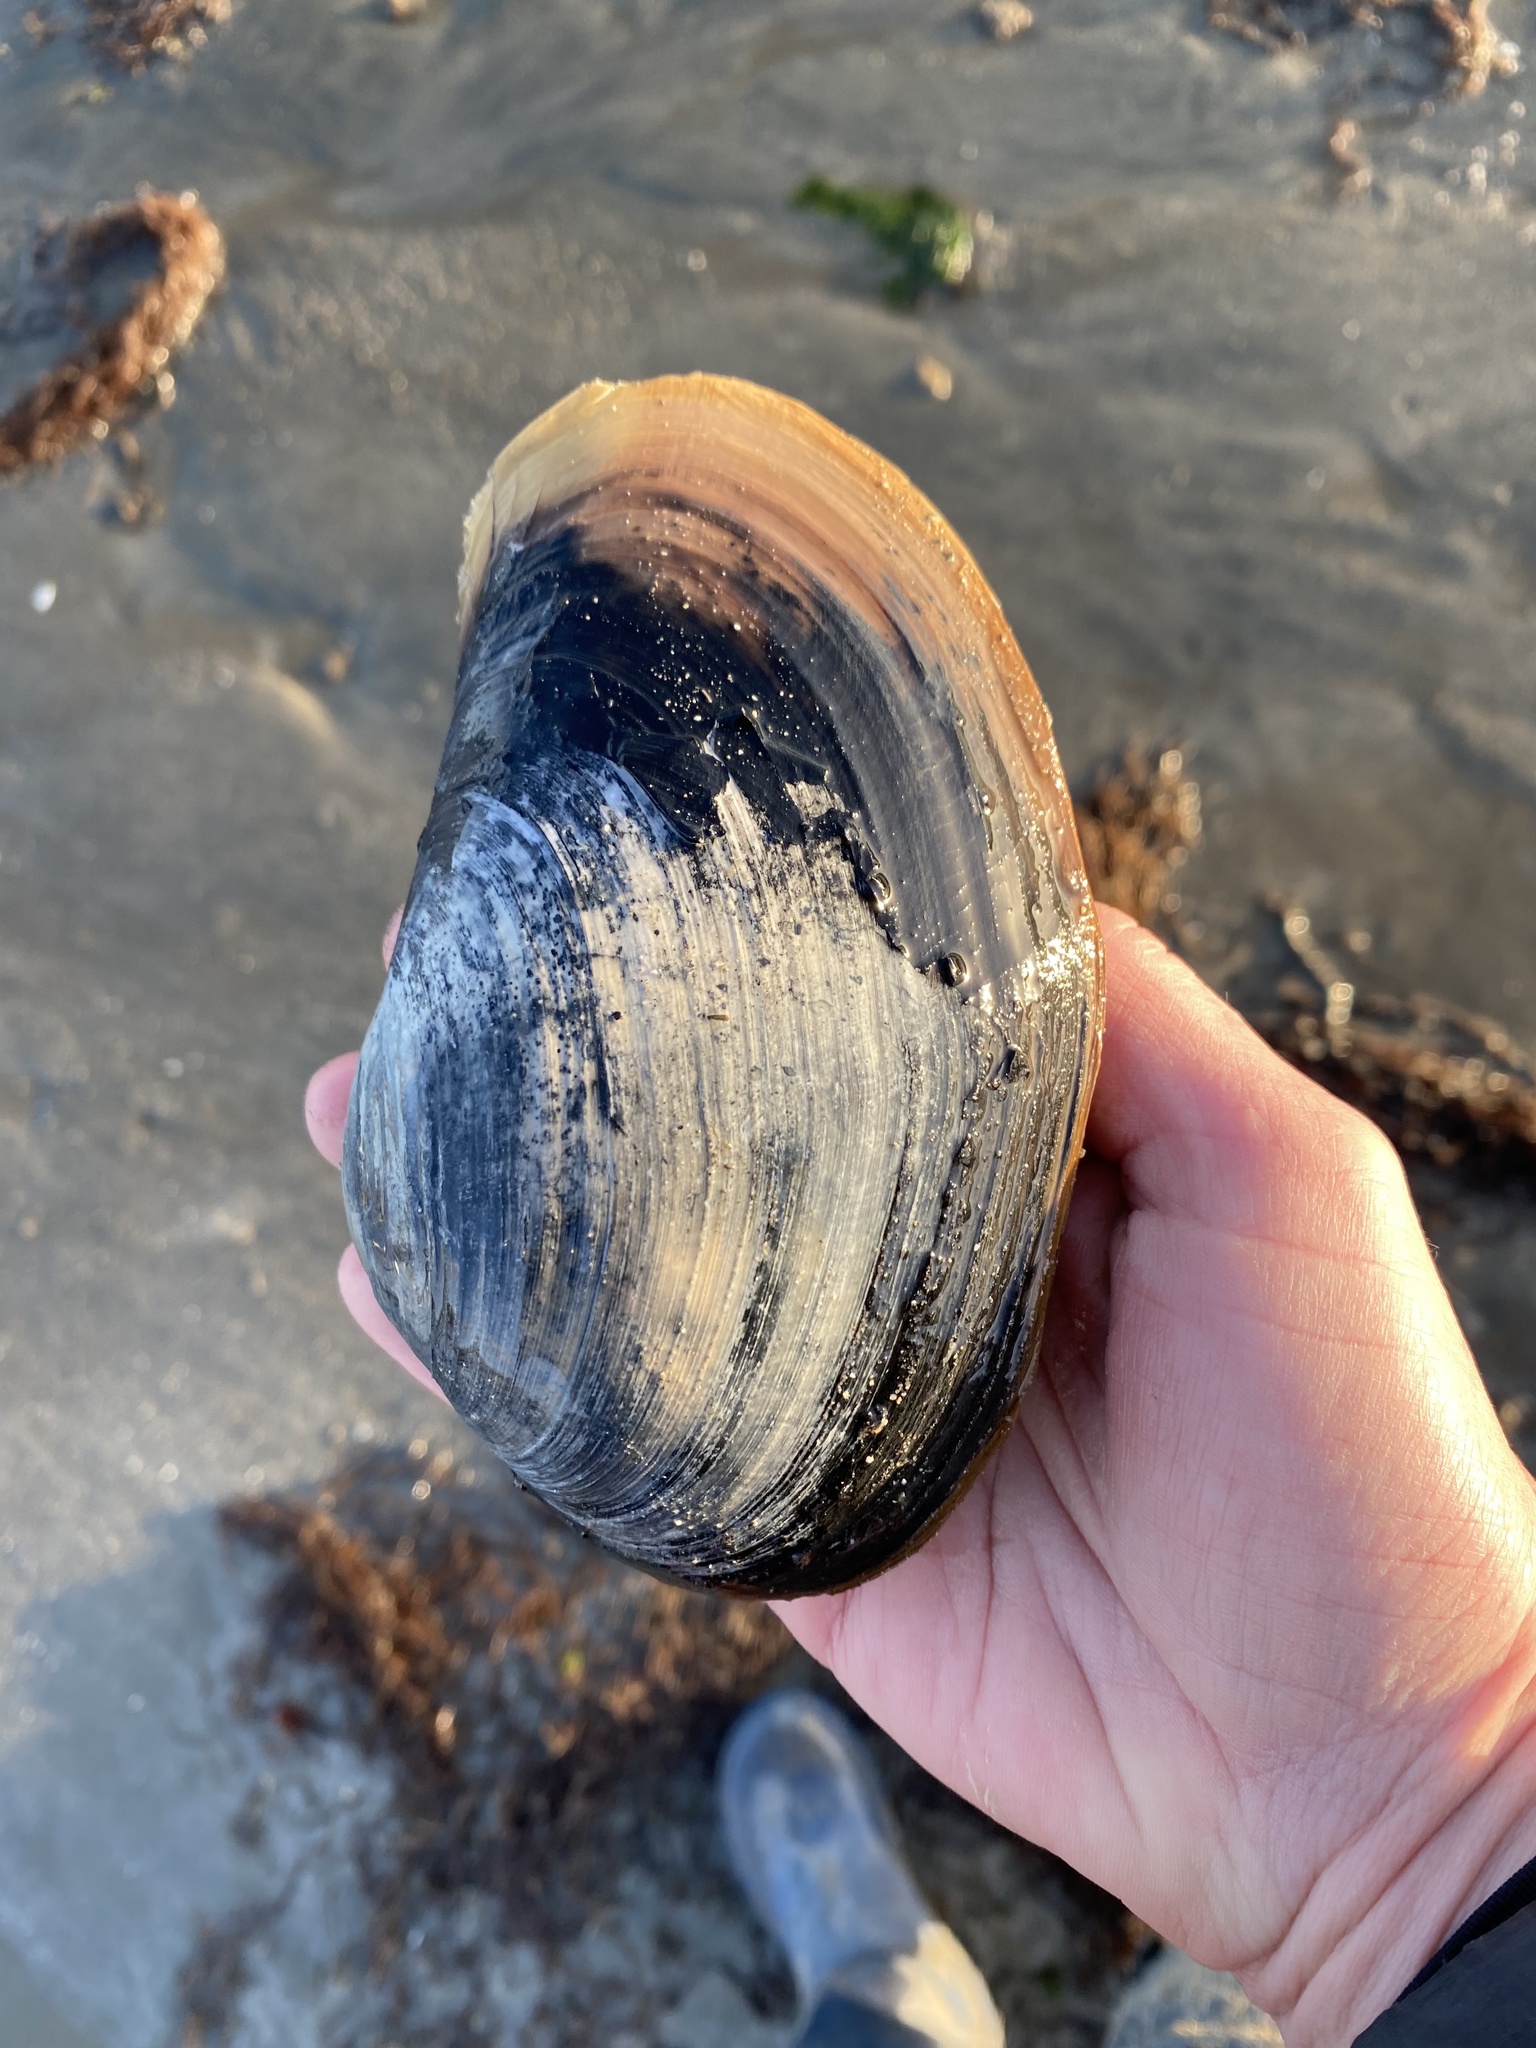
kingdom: Animalia
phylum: Mollusca
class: Bivalvia
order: Venerida
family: Mactridae
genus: Tresus
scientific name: Tresus nuttallii
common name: Pacific gaper clam
